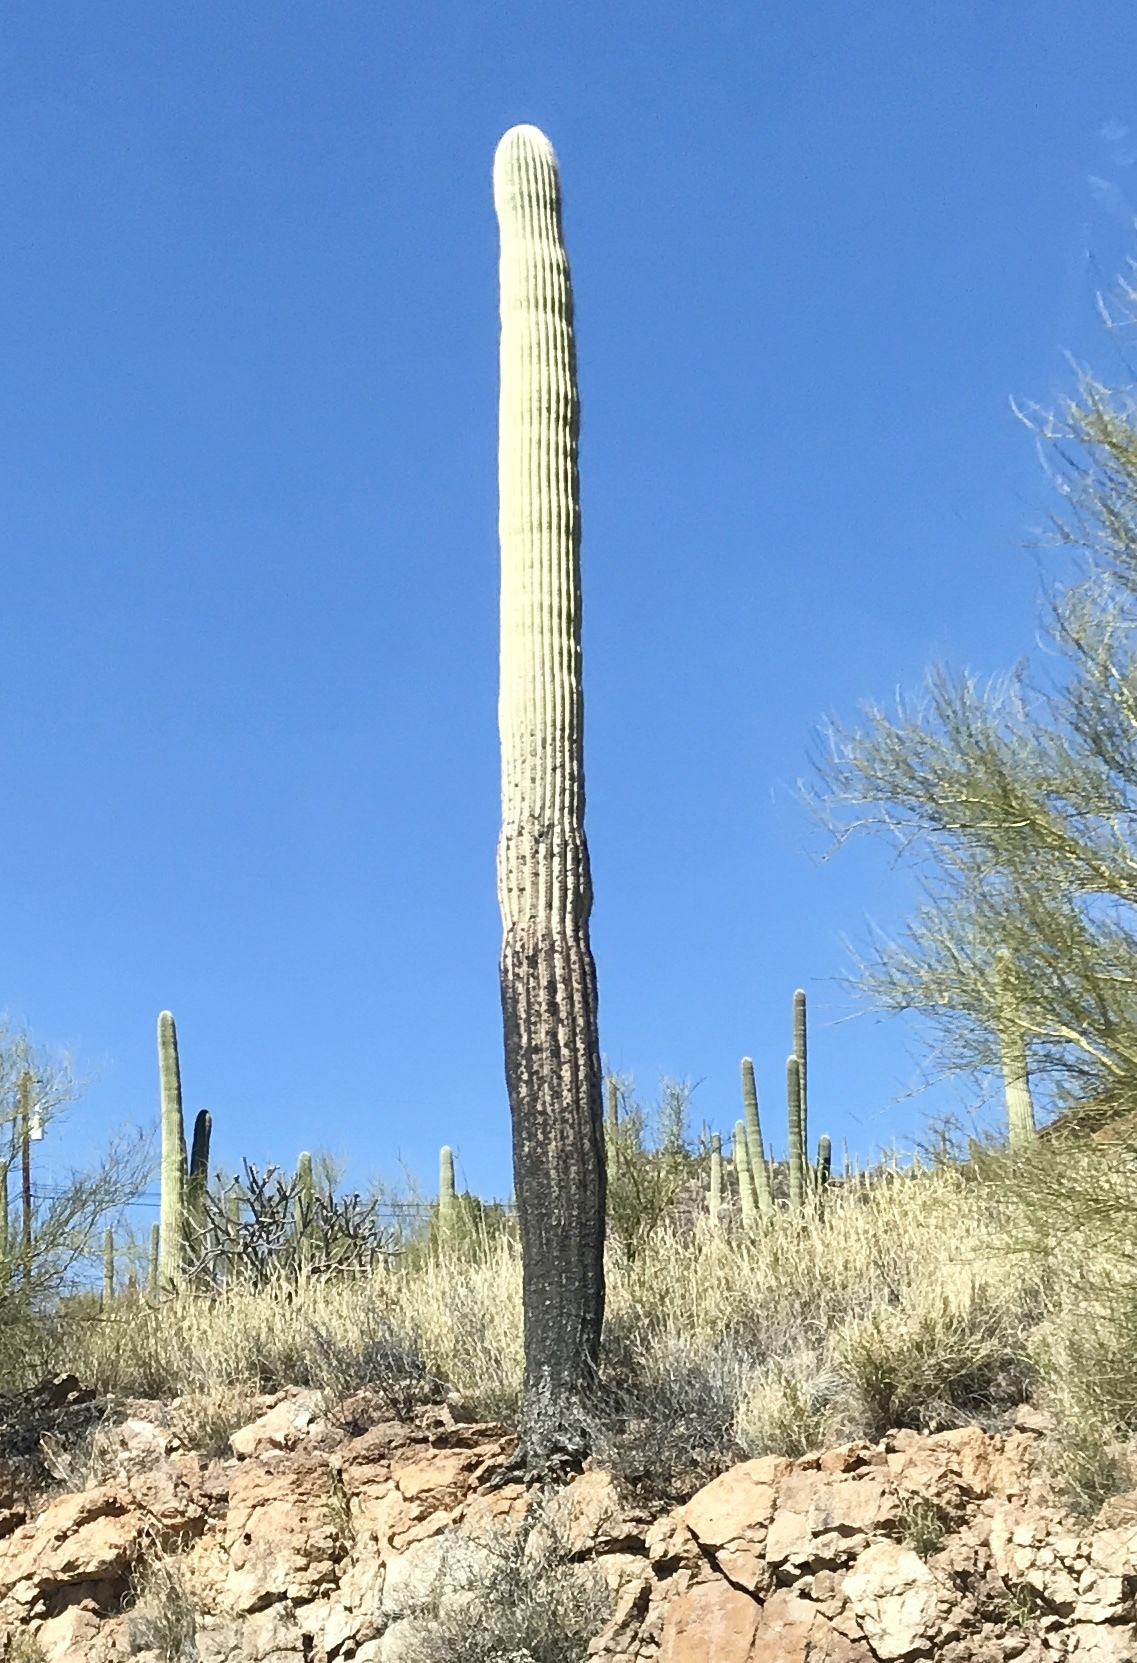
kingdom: Plantae
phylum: Tracheophyta
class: Magnoliopsida
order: Caryophyllales
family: Cactaceae
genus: Carnegiea
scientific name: Carnegiea gigantea
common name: Saguaro
